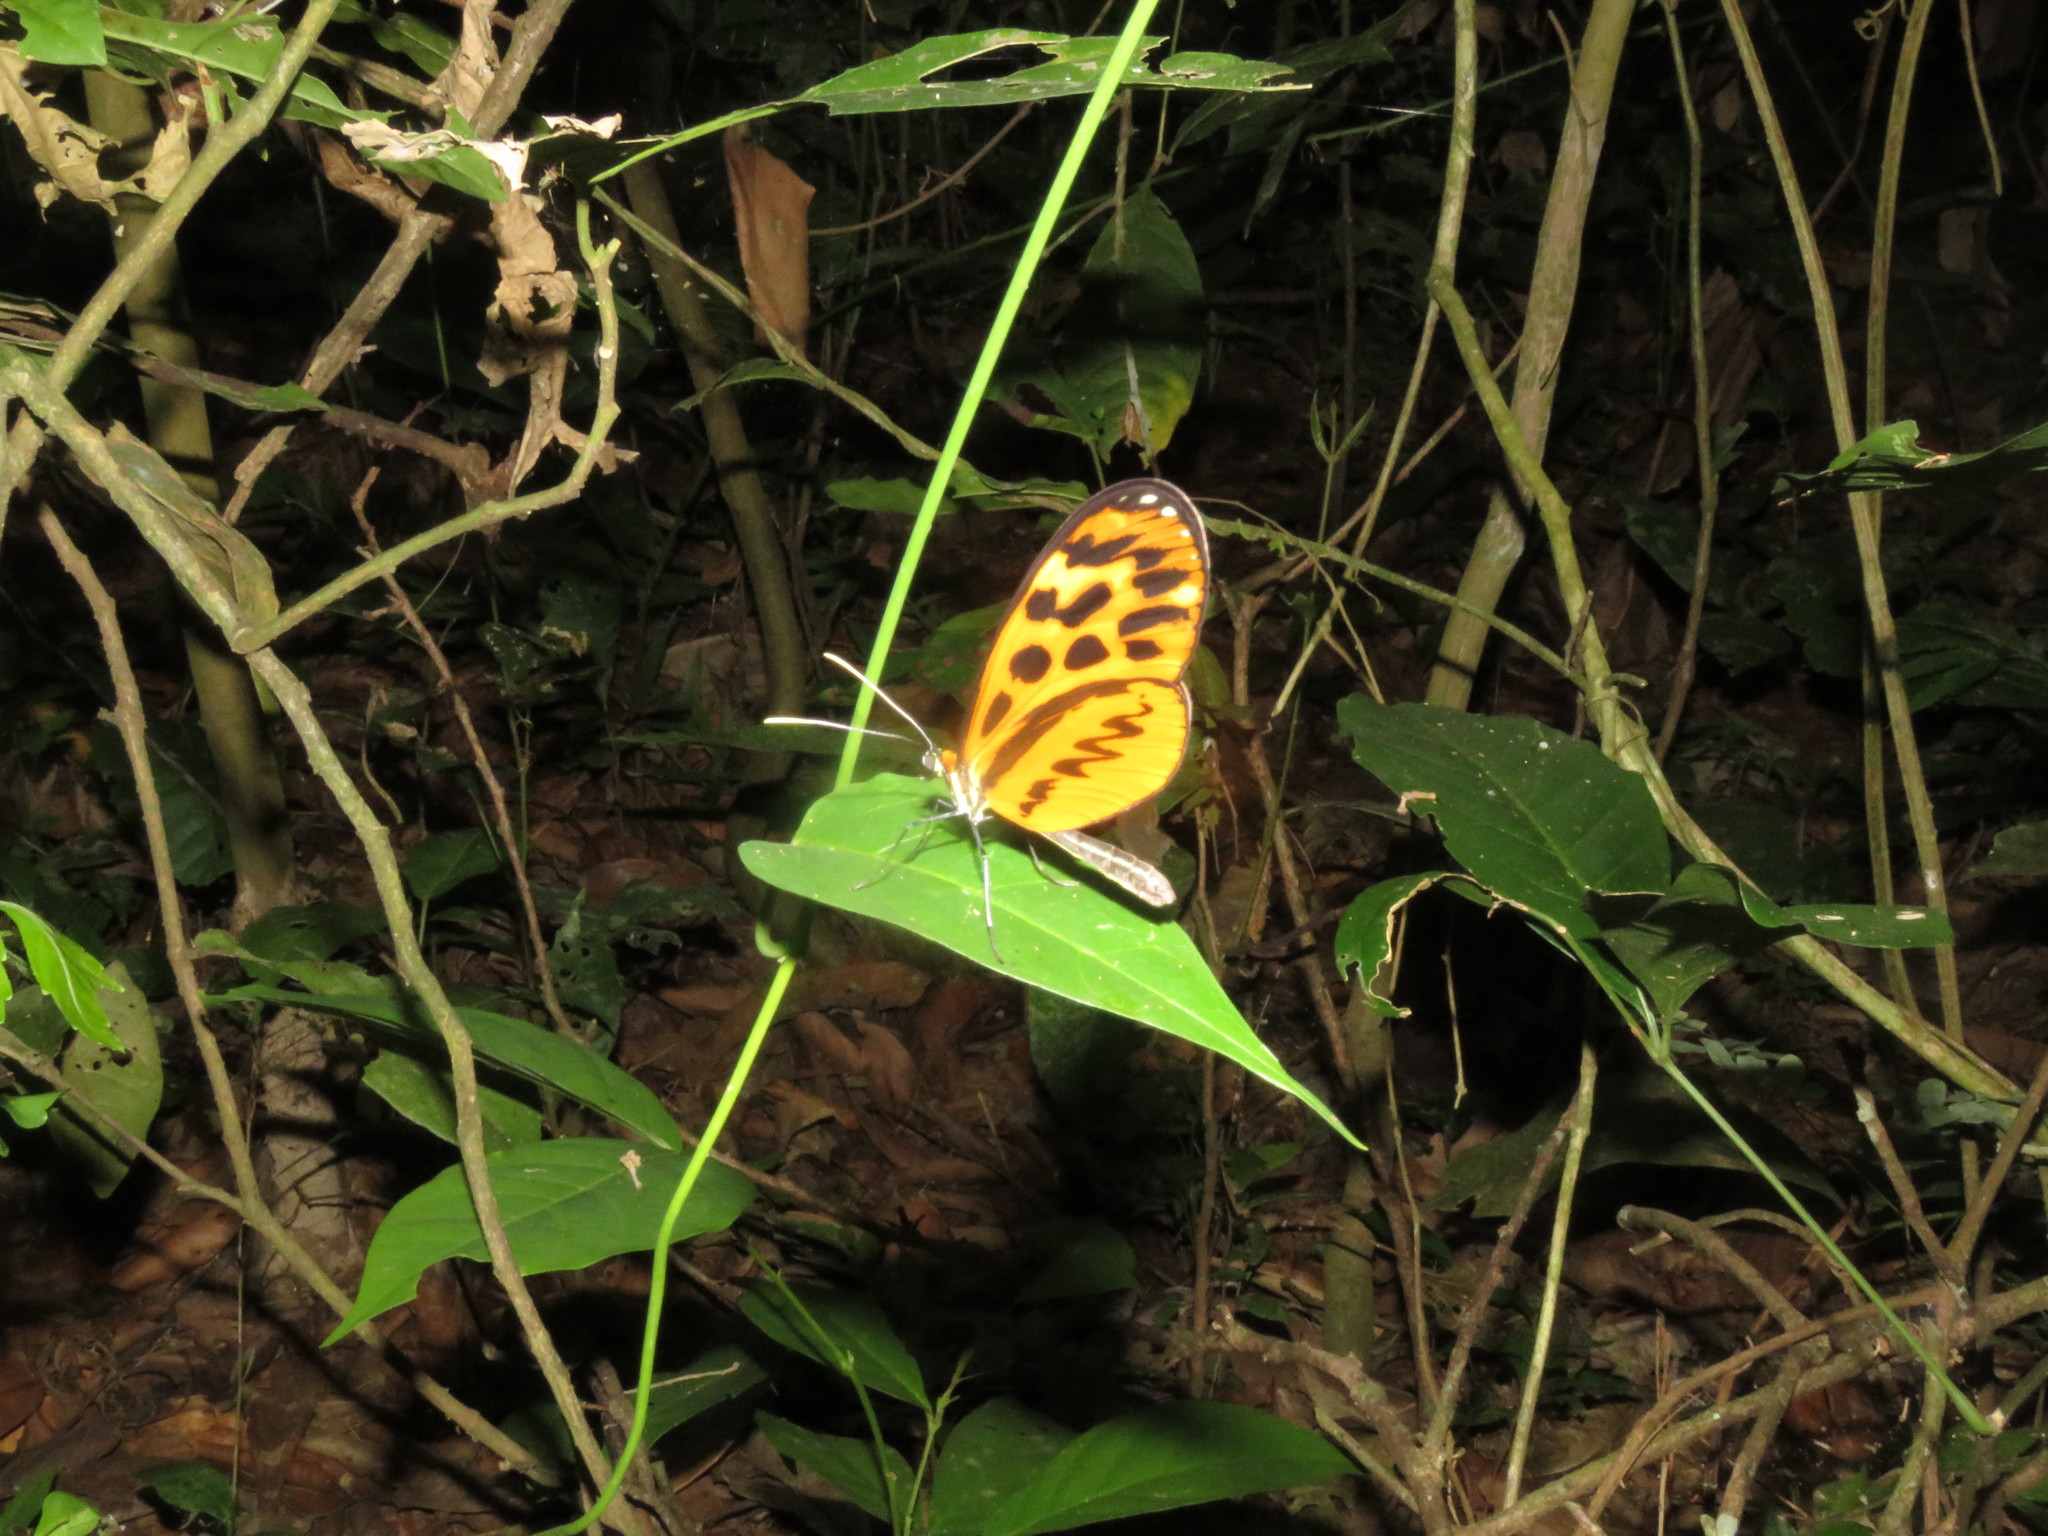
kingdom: Animalia
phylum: Arthropoda
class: Insecta
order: Lepidoptera
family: Nymphalidae
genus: Forbestra
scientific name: Forbestra olivencia
